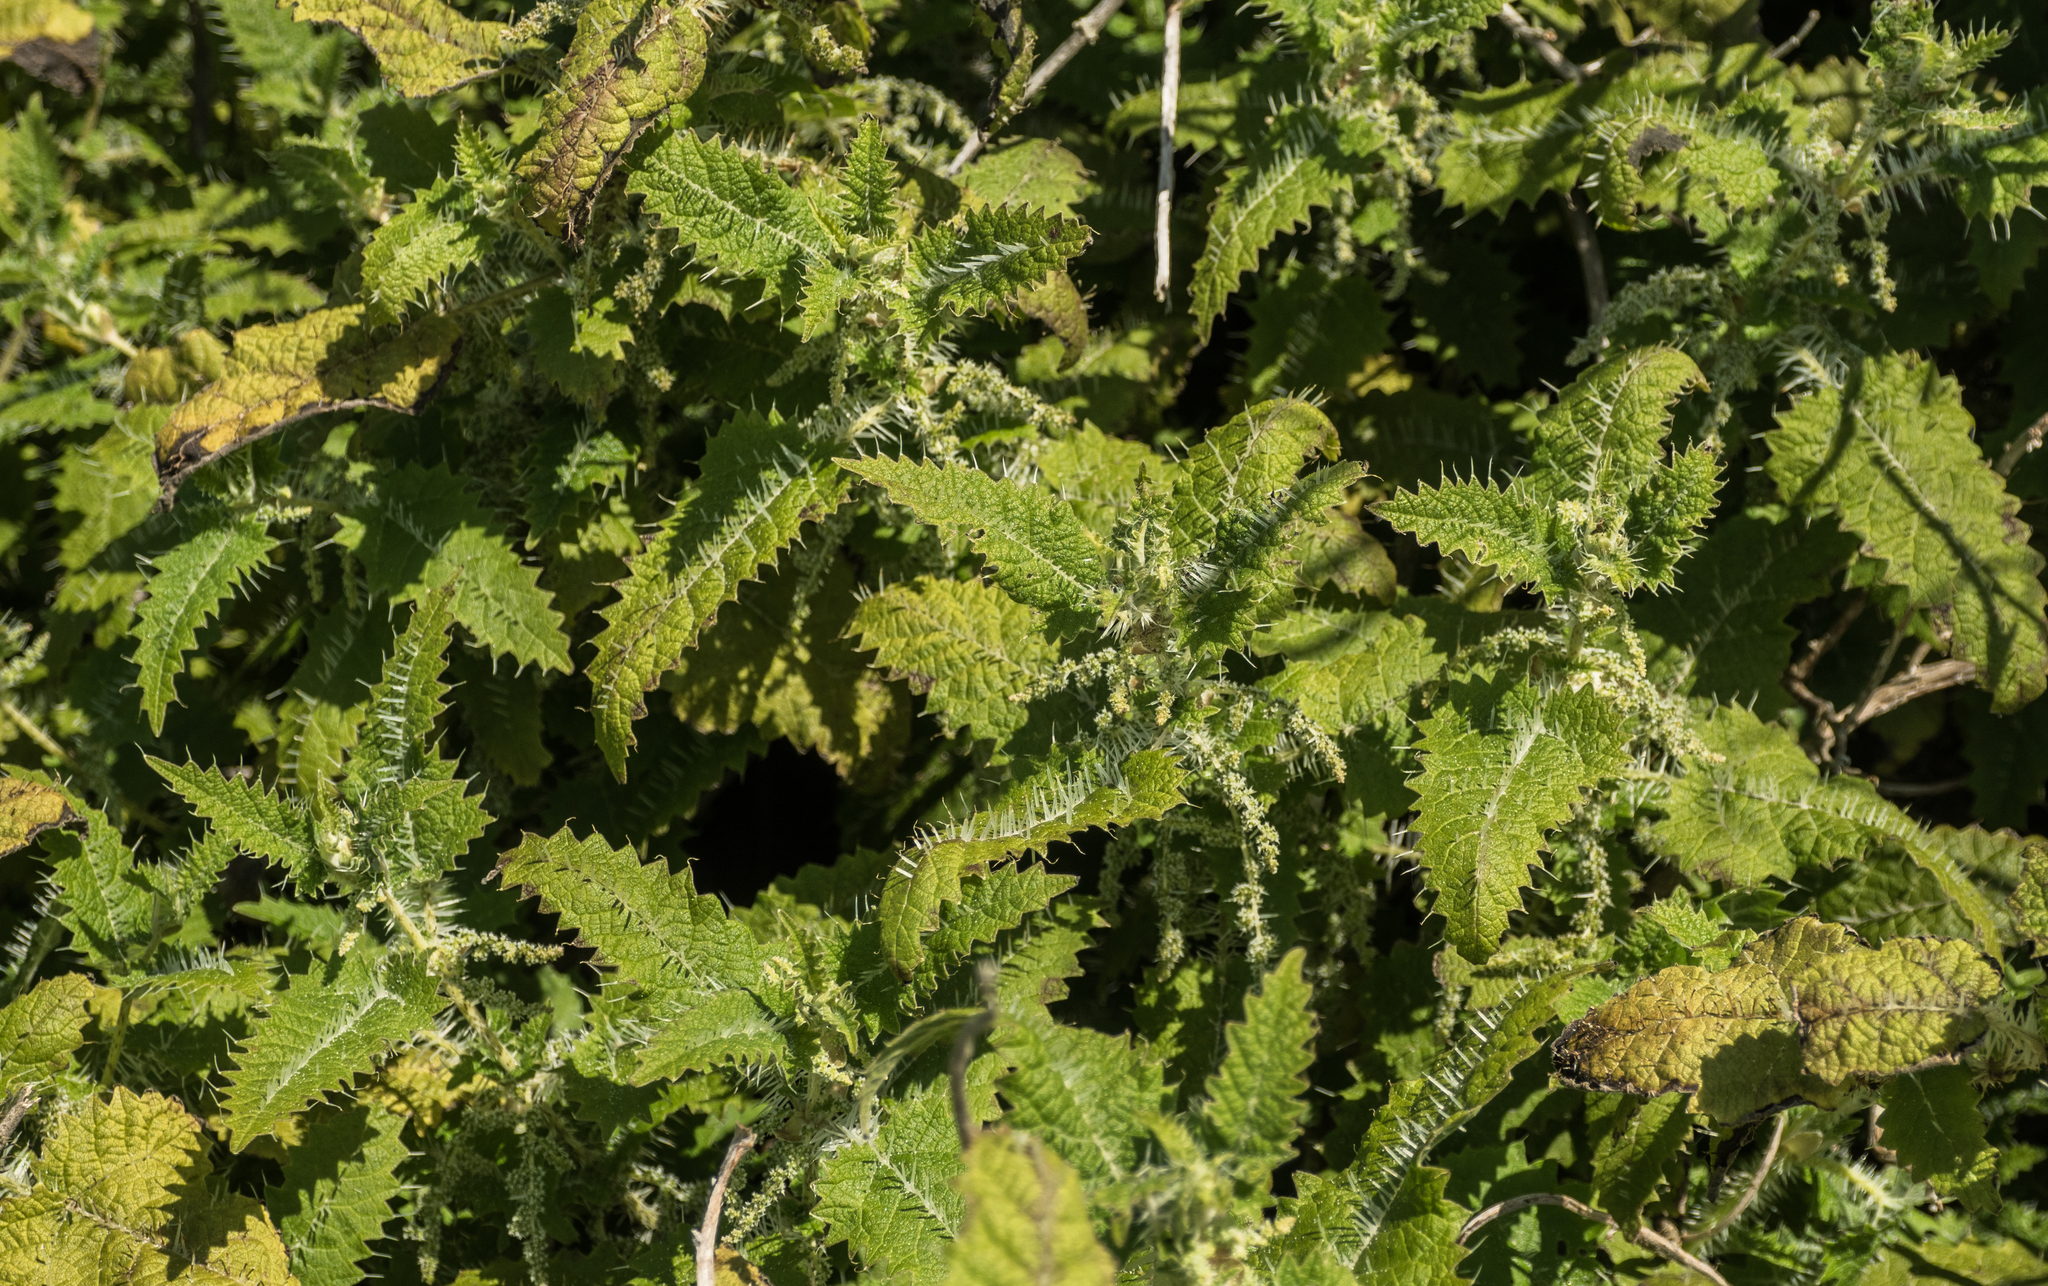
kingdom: Plantae
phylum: Tracheophyta
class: Magnoliopsida
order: Rosales
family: Urticaceae
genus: Urtica
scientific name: Urtica ferox
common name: Tree nettle
